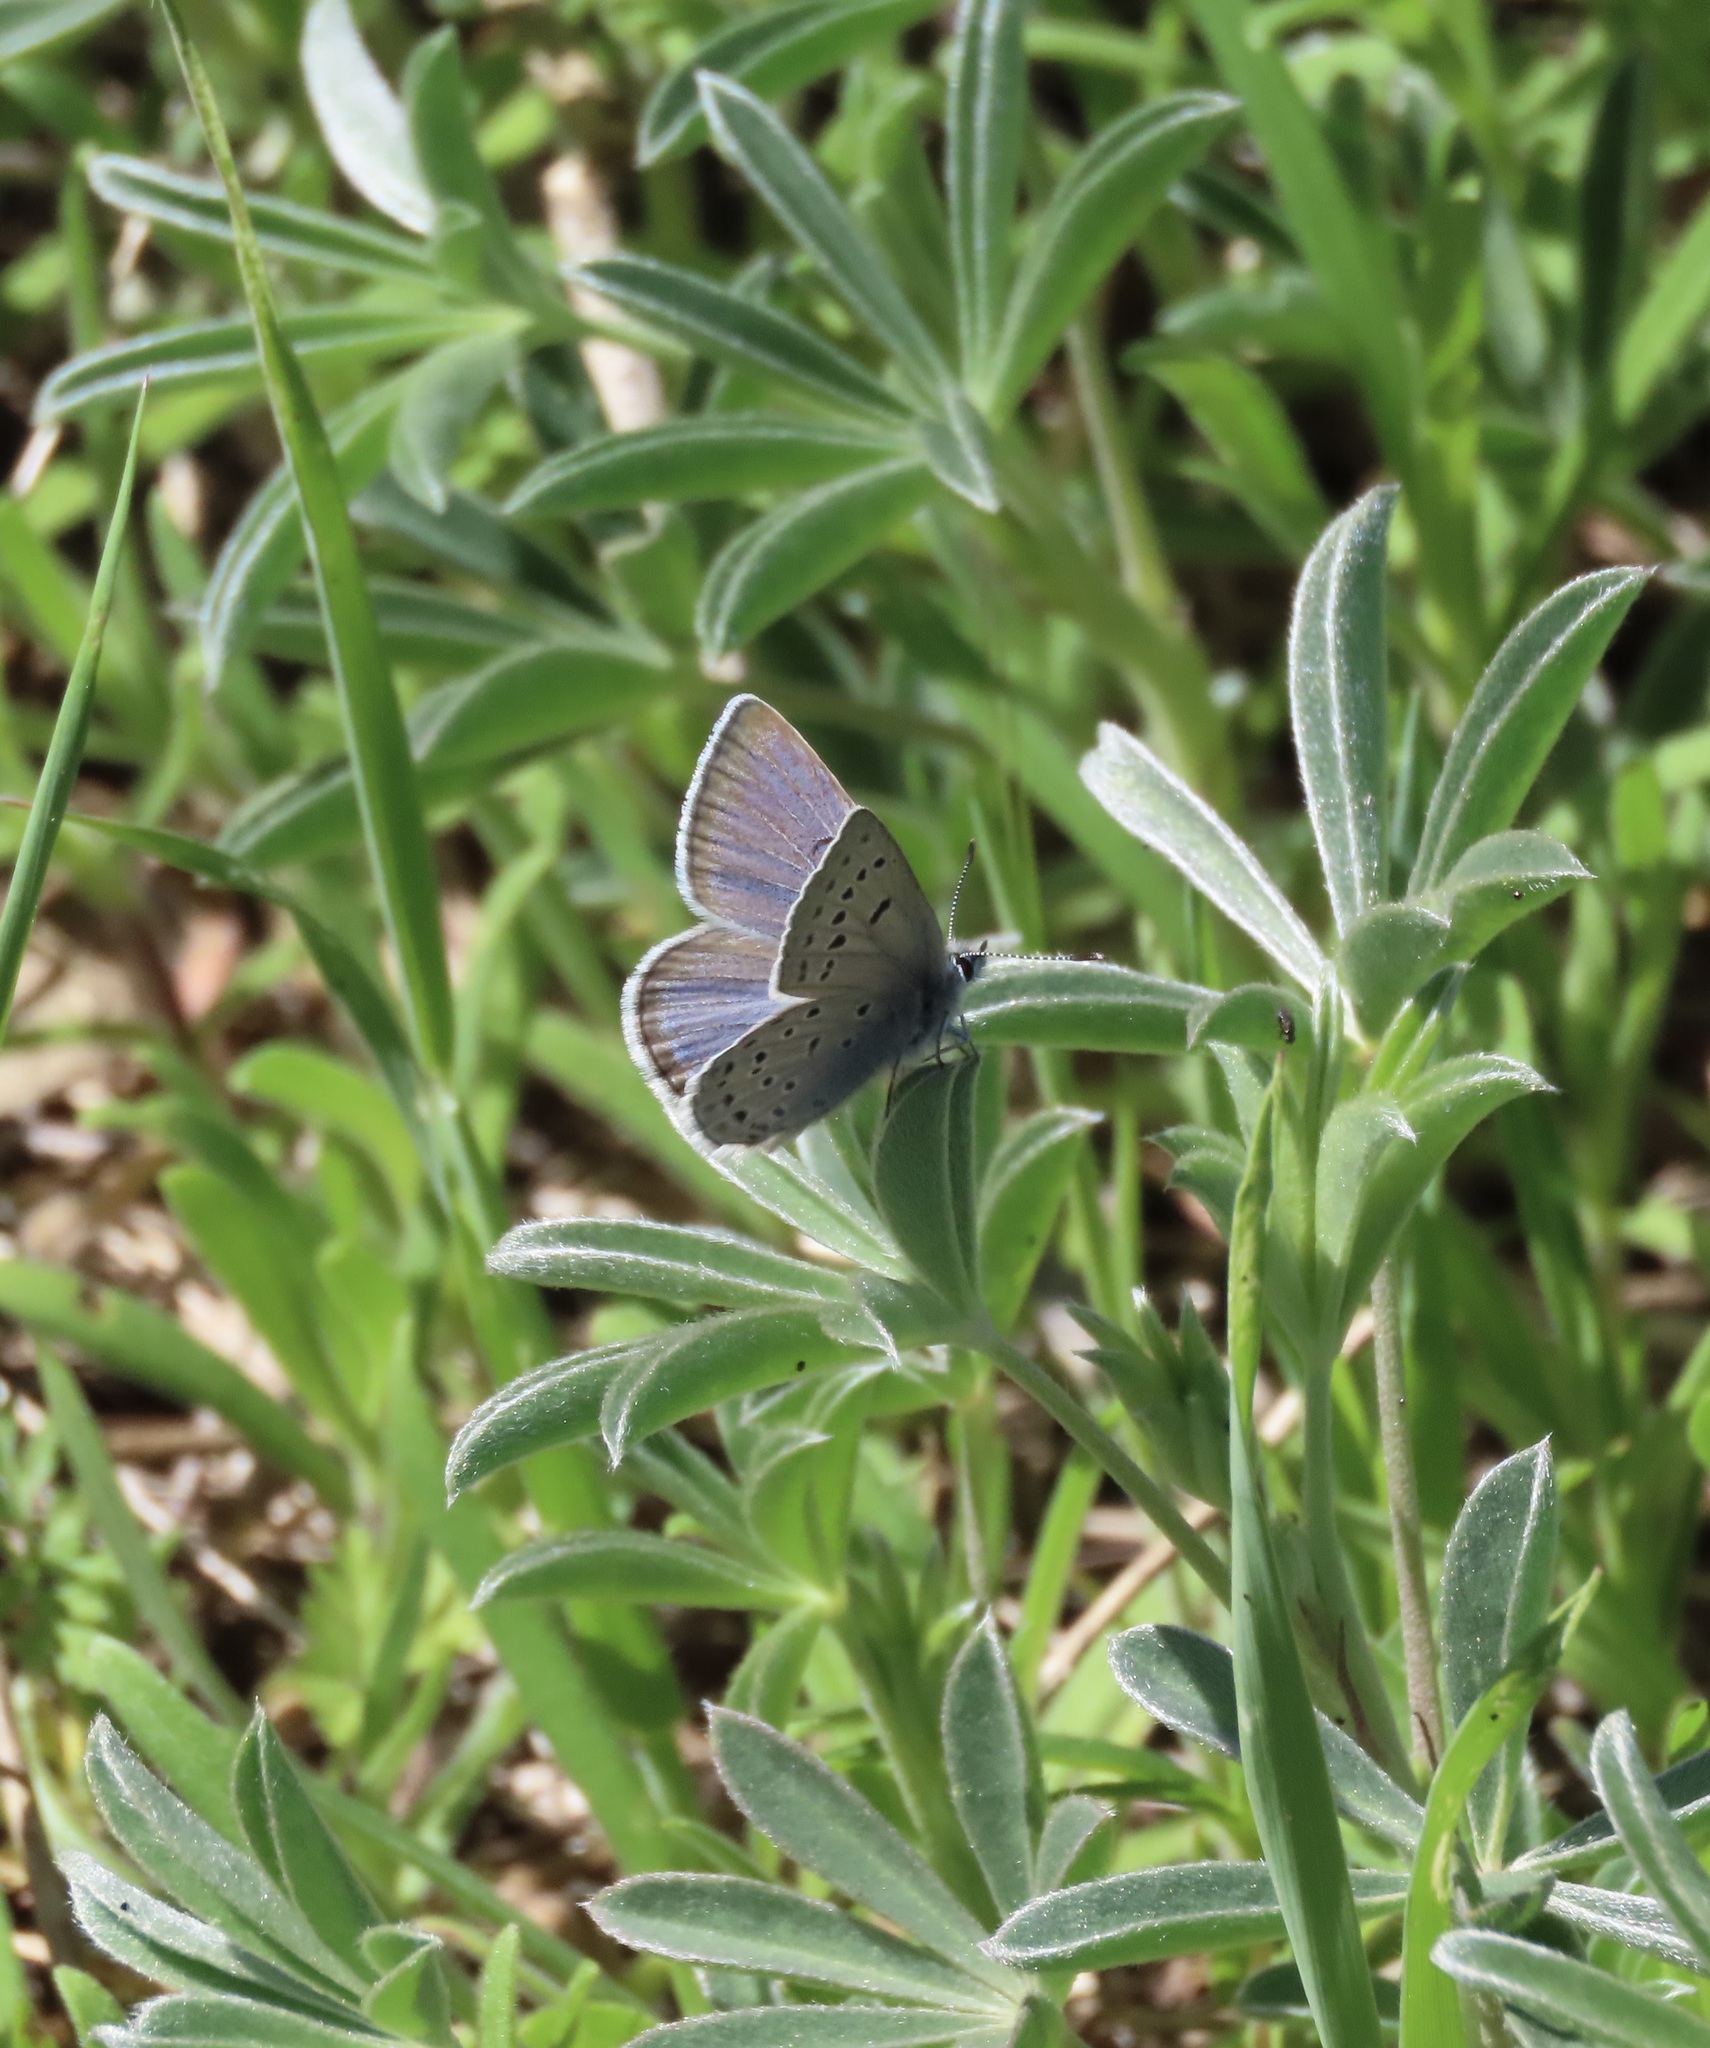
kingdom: Animalia
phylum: Arthropoda
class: Insecta
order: Lepidoptera
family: Lycaenidae
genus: Icaricia
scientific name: Icaricia icarioides
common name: Boisduval's blue
